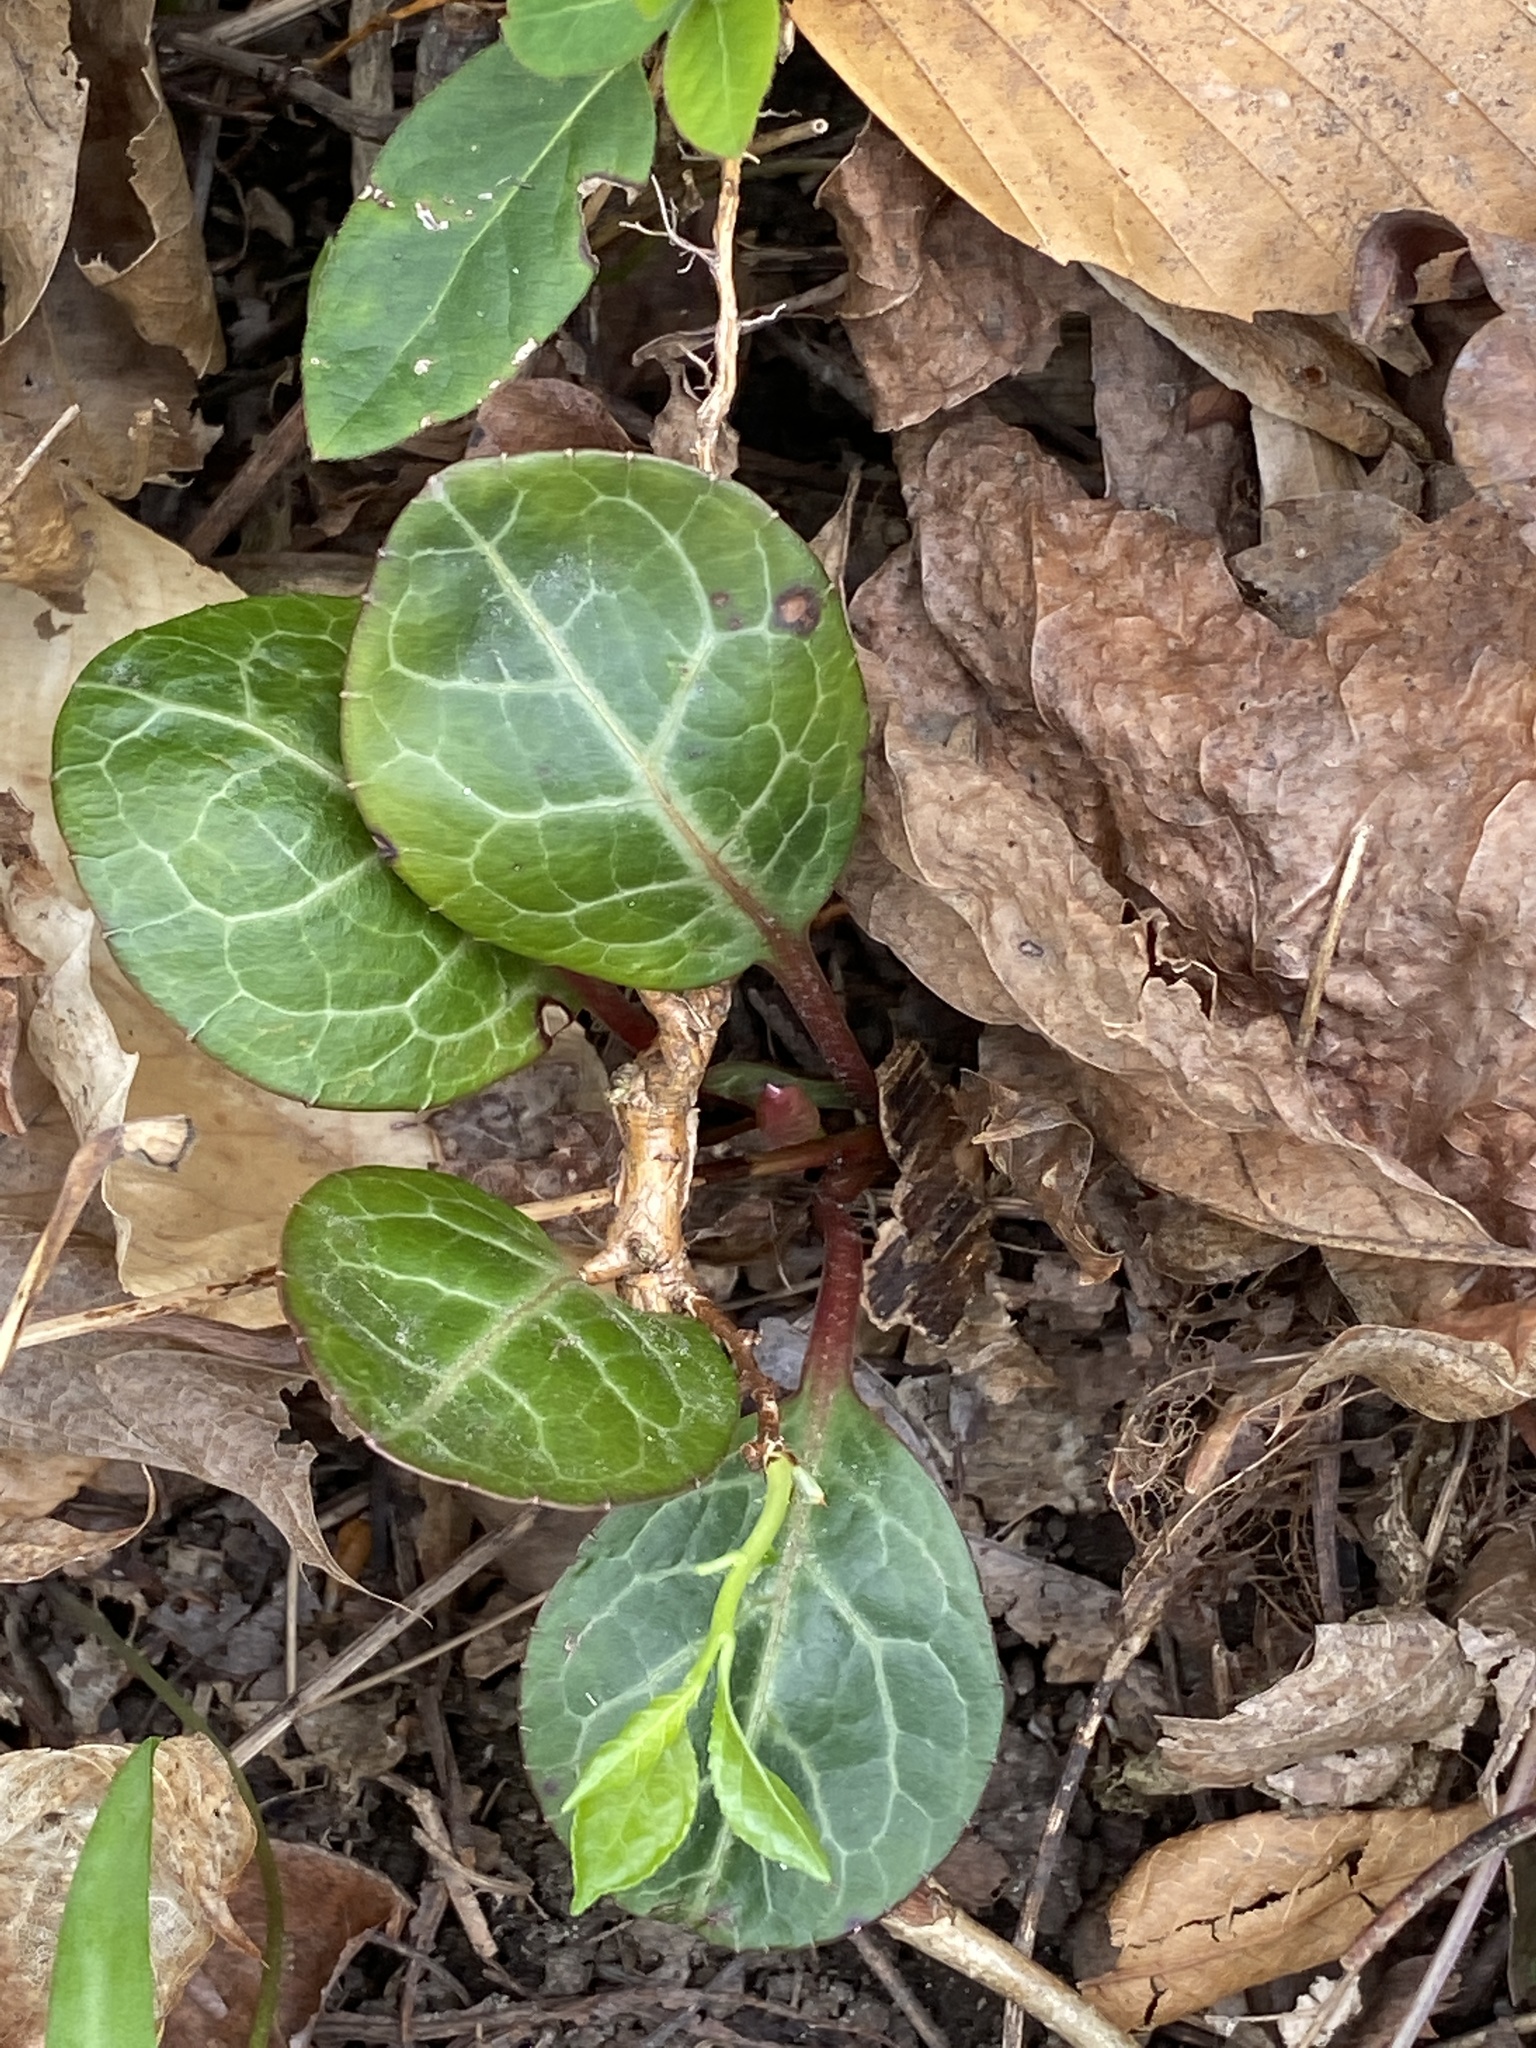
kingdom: Plantae
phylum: Tracheophyta
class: Magnoliopsida
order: Ericales
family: Ericaceae
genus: Pyrola
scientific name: Pyrola americana
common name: American wintergreen
